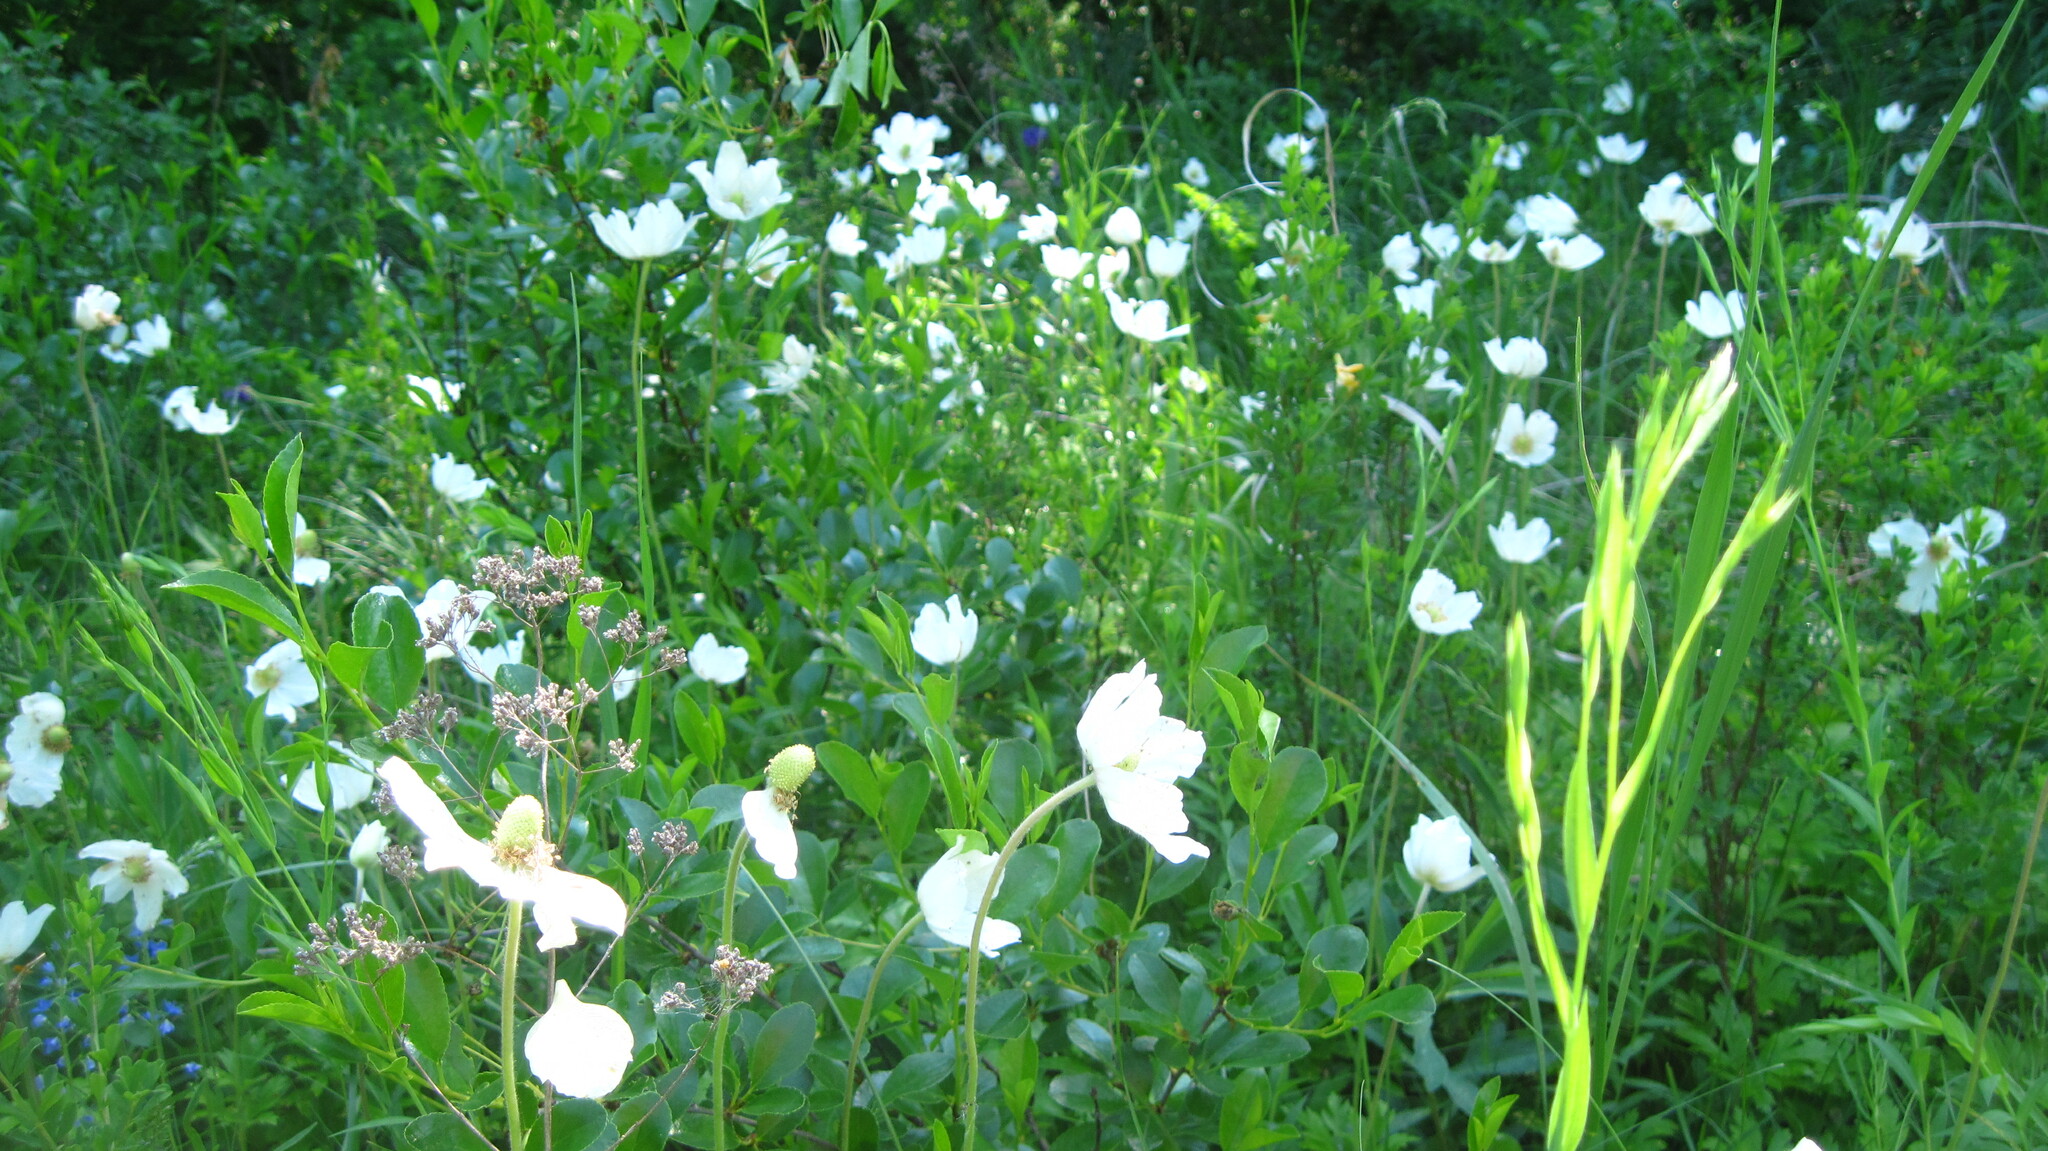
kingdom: Plantae
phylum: Tracheophyta
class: Magnoliopsida
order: Ranunculales
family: Ranunculaceae
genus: Anemone
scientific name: Anemone sylvestris
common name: Snowdrop anemone
